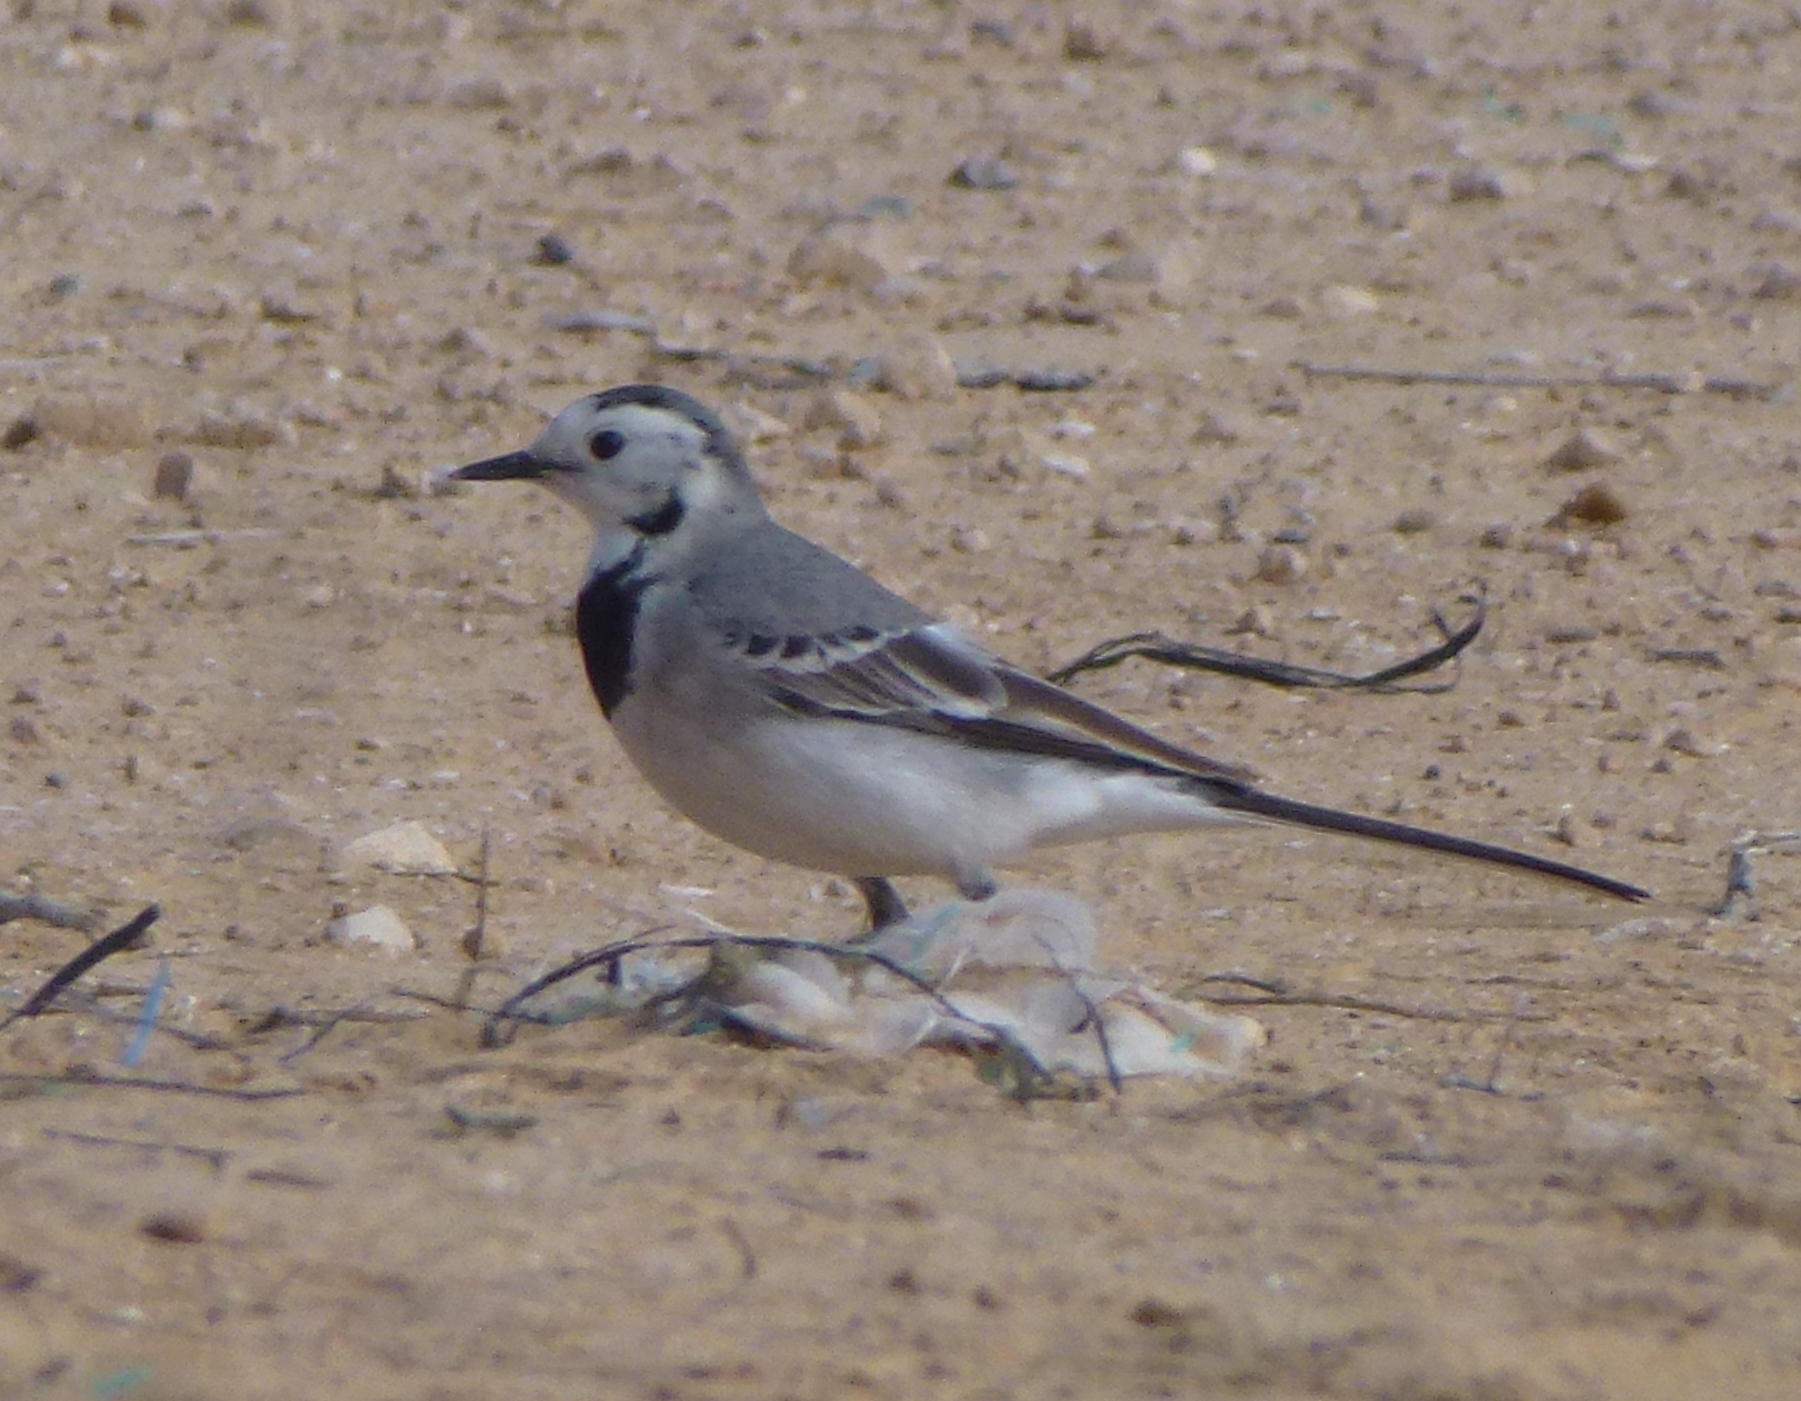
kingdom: Animalia
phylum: Chordata
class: Aves
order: Passeriformes
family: Motacillidae
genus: Motacilla
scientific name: Motacilla alba
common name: White wagtail
